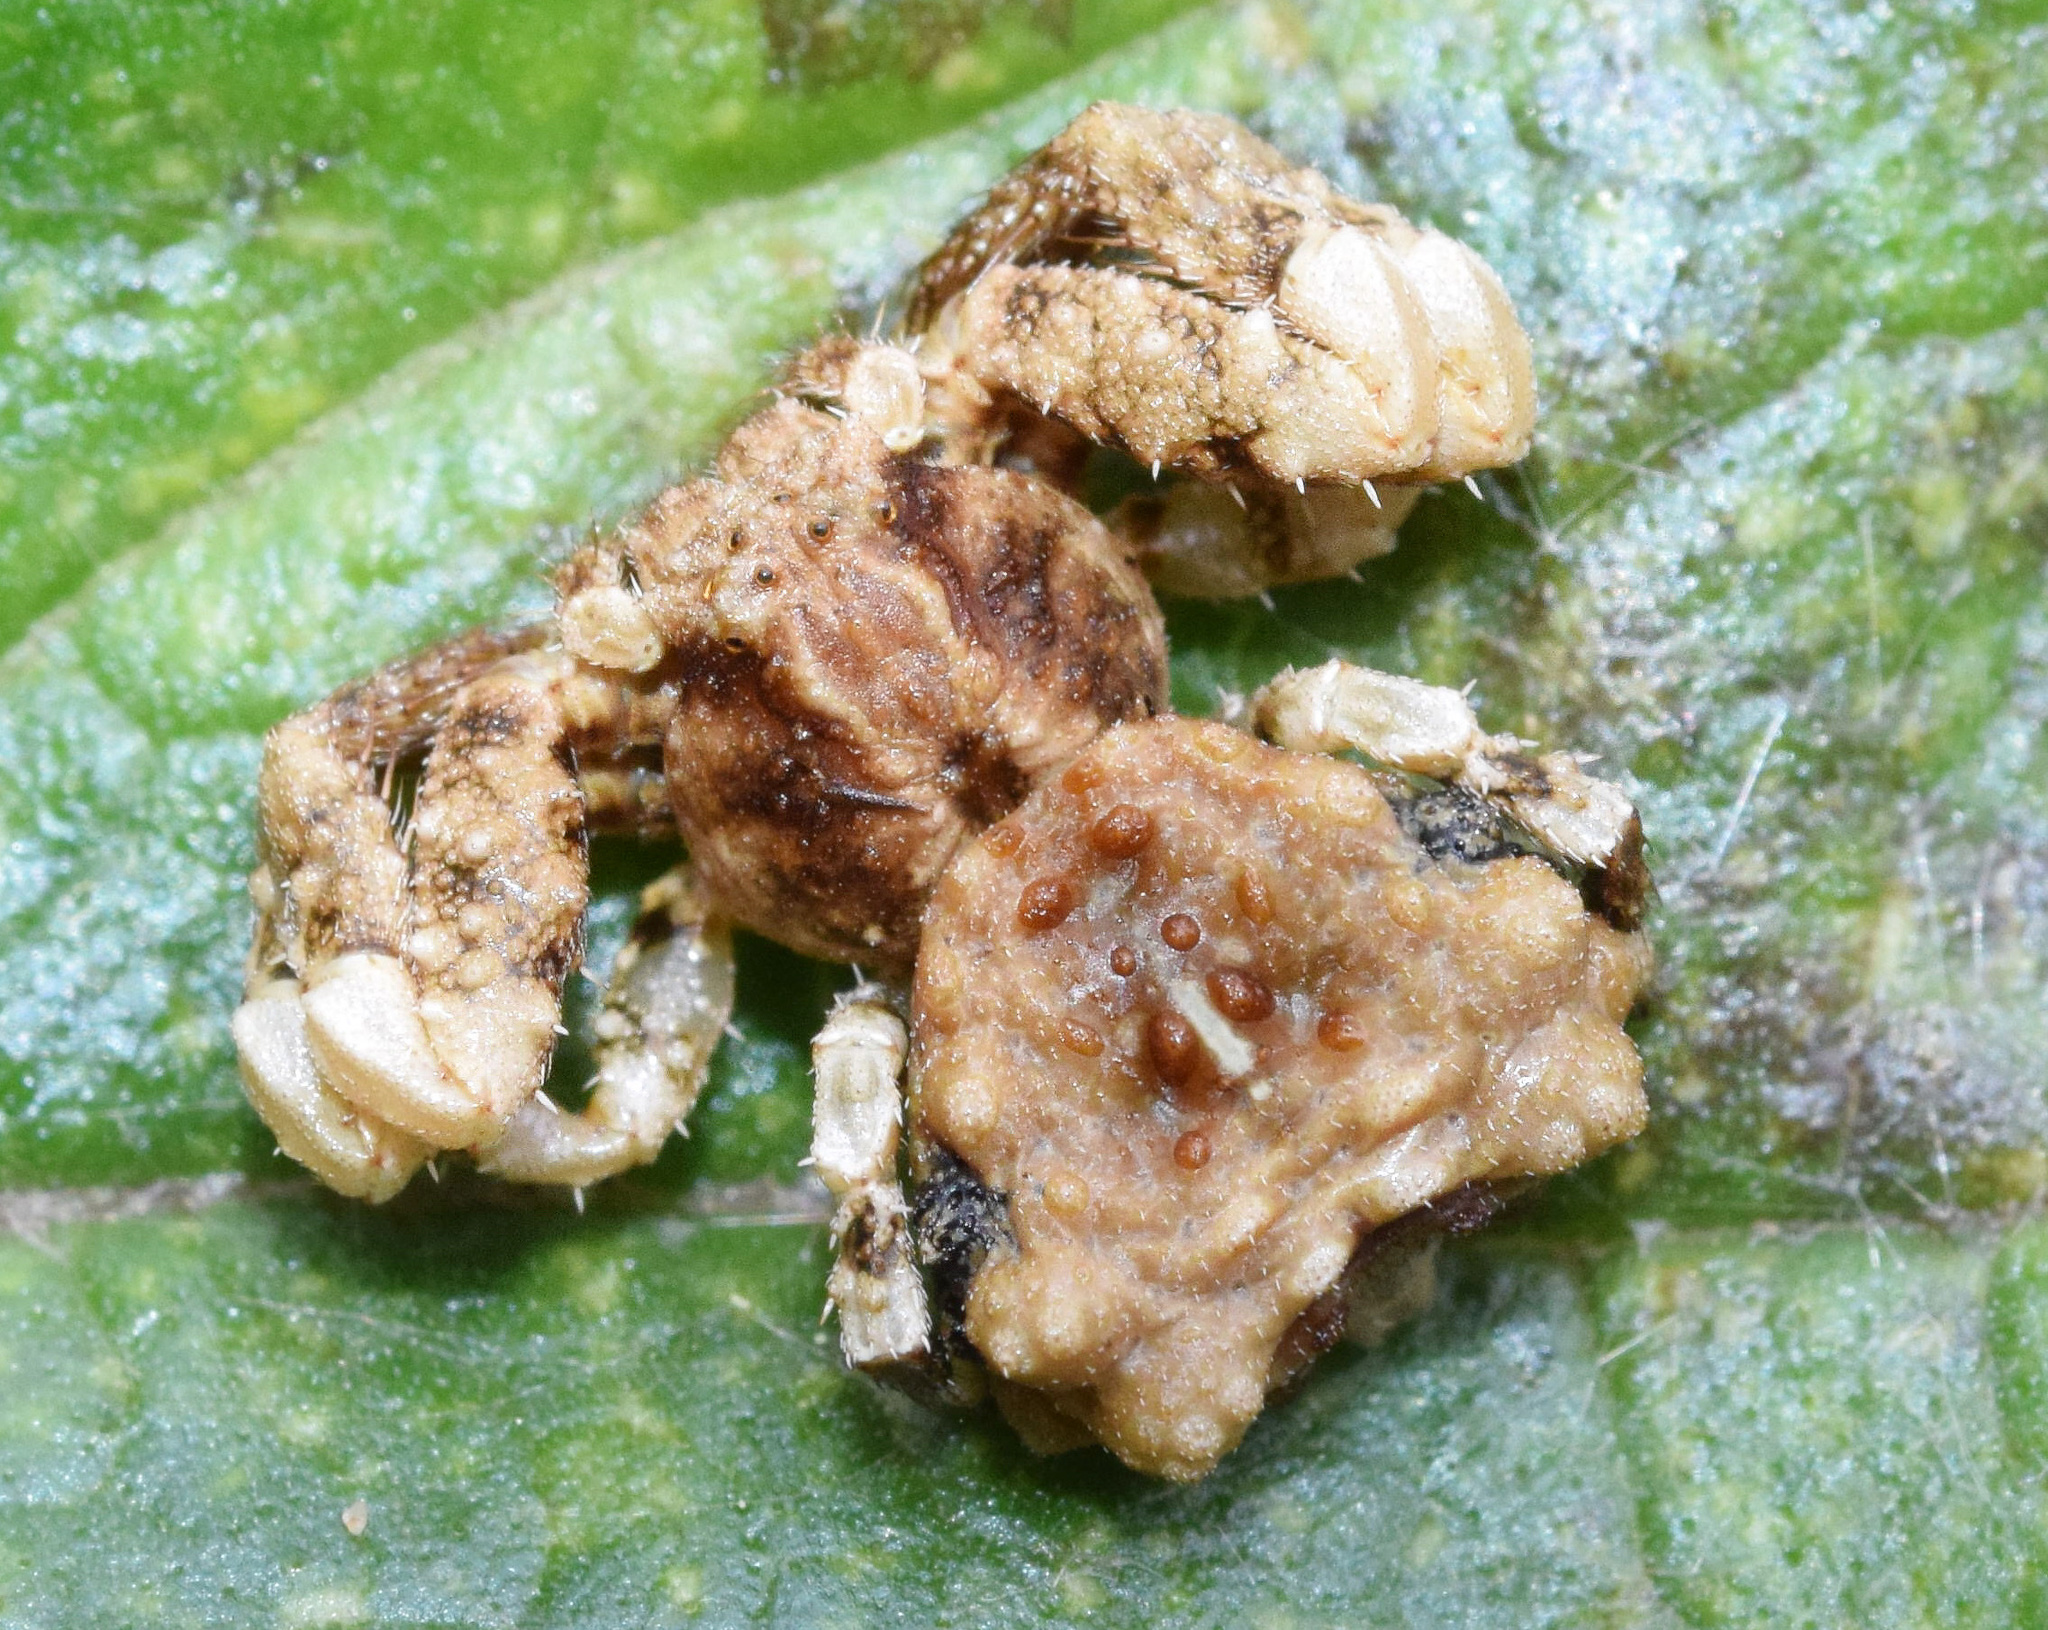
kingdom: Animalia
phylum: Arthropoda
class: Arachnida
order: Araneae
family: Thomisidae
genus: Phrynarachne
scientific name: Phrynarachne rugosa
